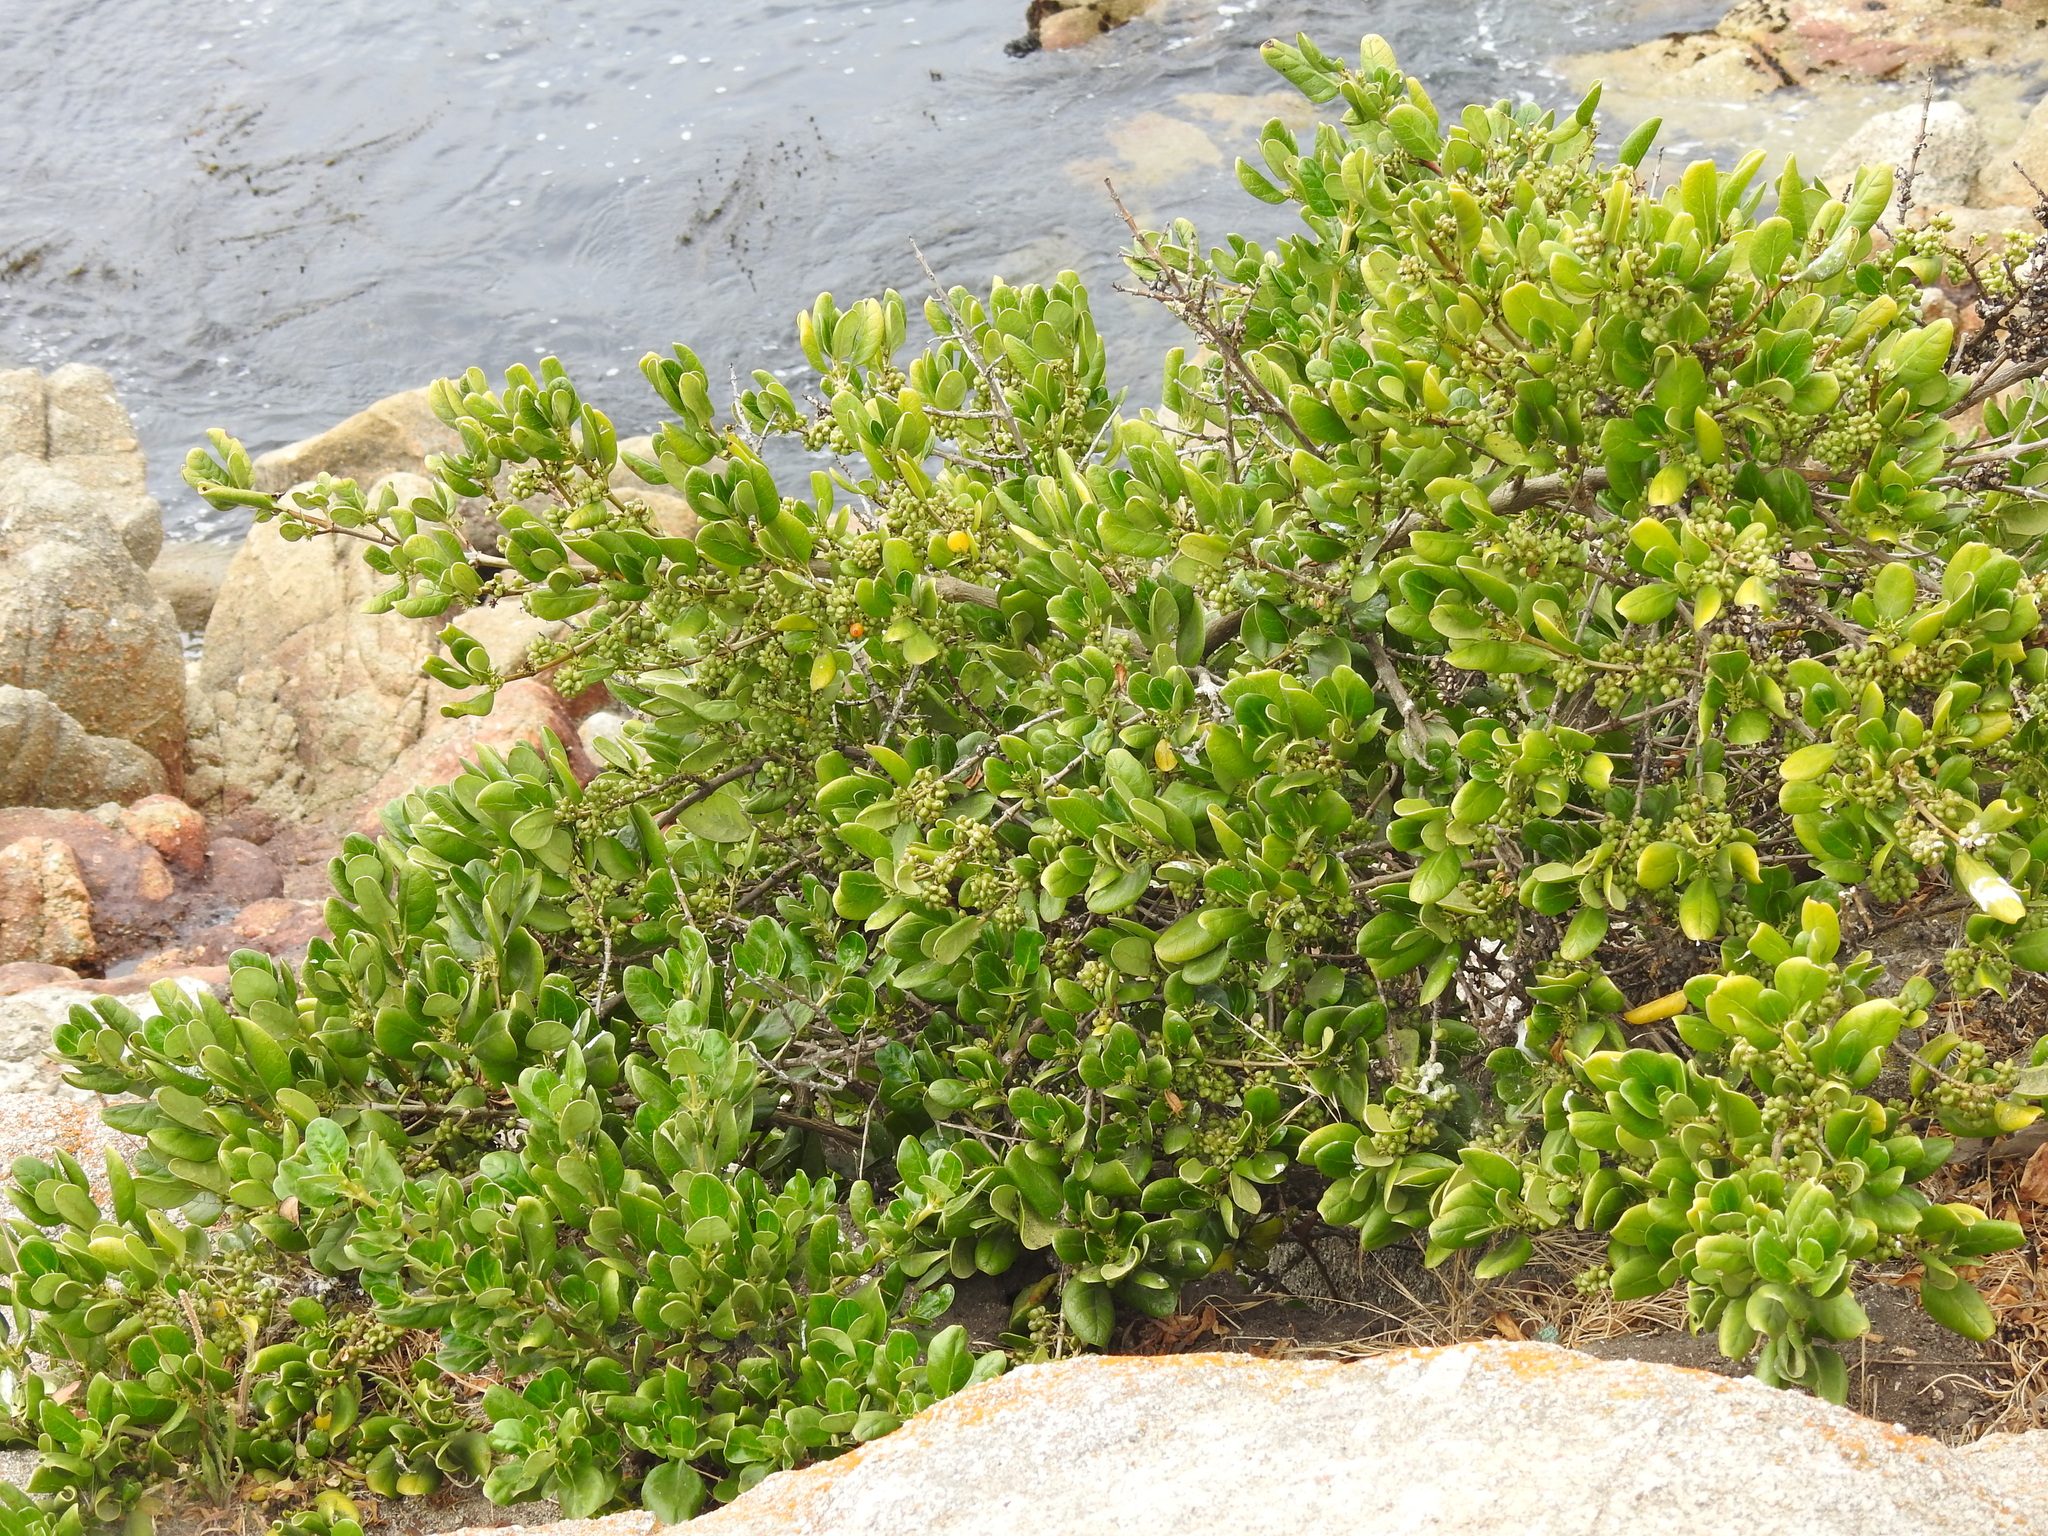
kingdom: Plantae
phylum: Tracheophyta
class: Magnoliopsida
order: Gentianales
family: Rubiaceae
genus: Coprosma
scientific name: Coprosma repens
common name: Tree bedstraw
